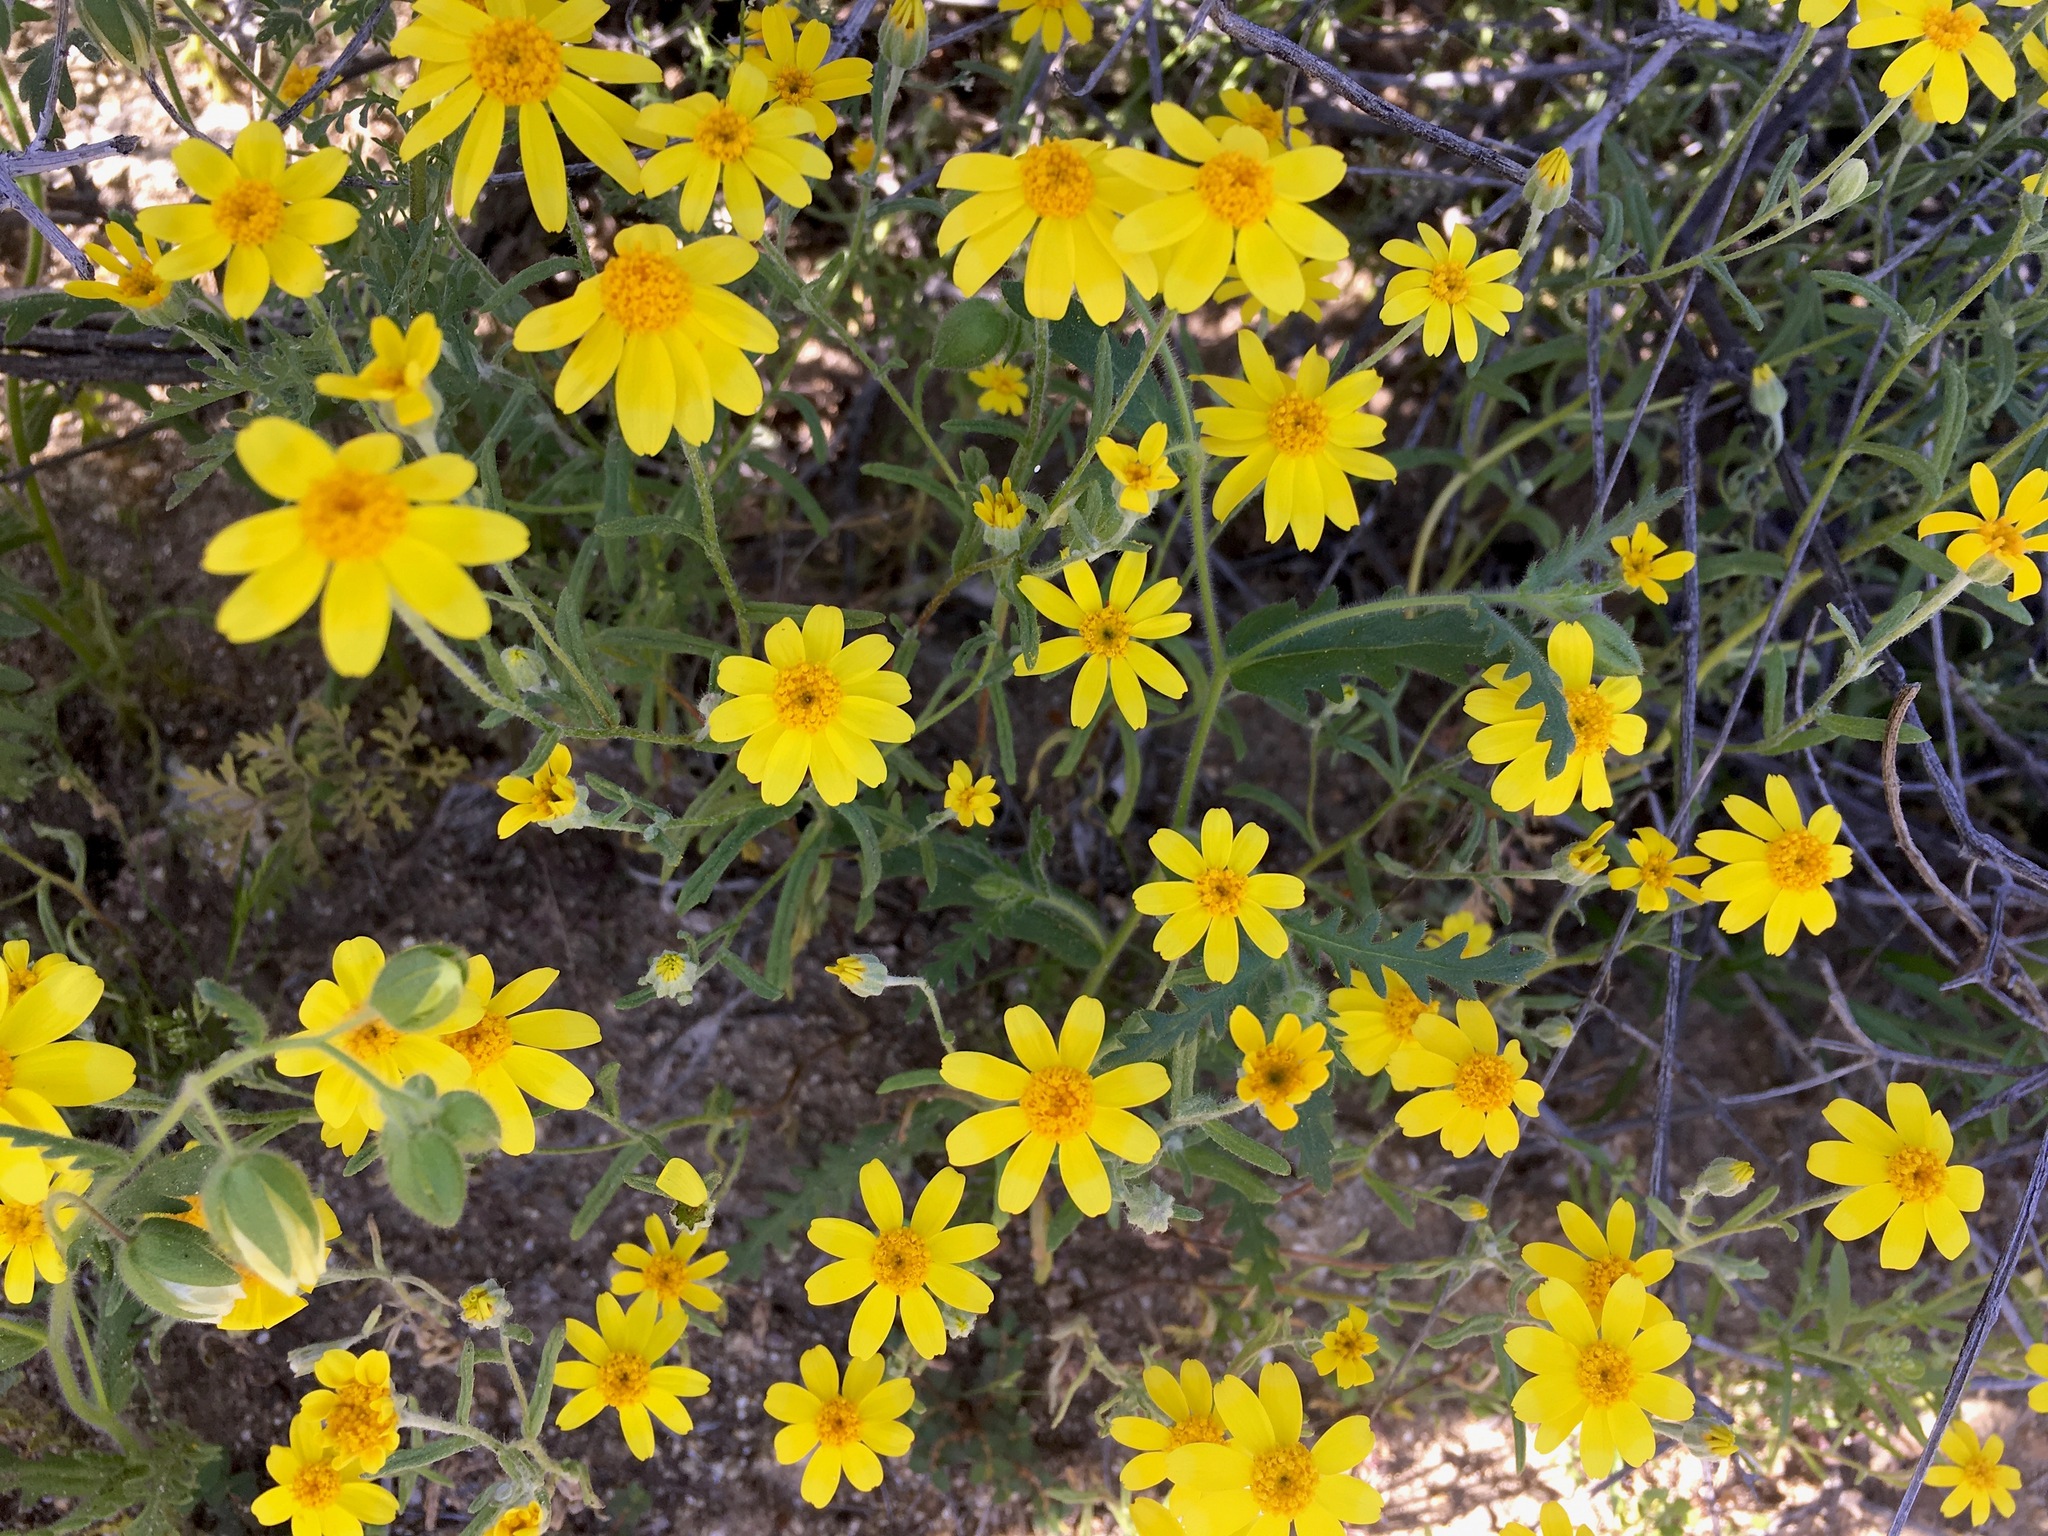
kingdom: Plantae
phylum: Tracheophyta
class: Magnoliopsida
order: Asterales
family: Asteraceae
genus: Eriophyllum
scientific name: Eriophyllum ambiguum
